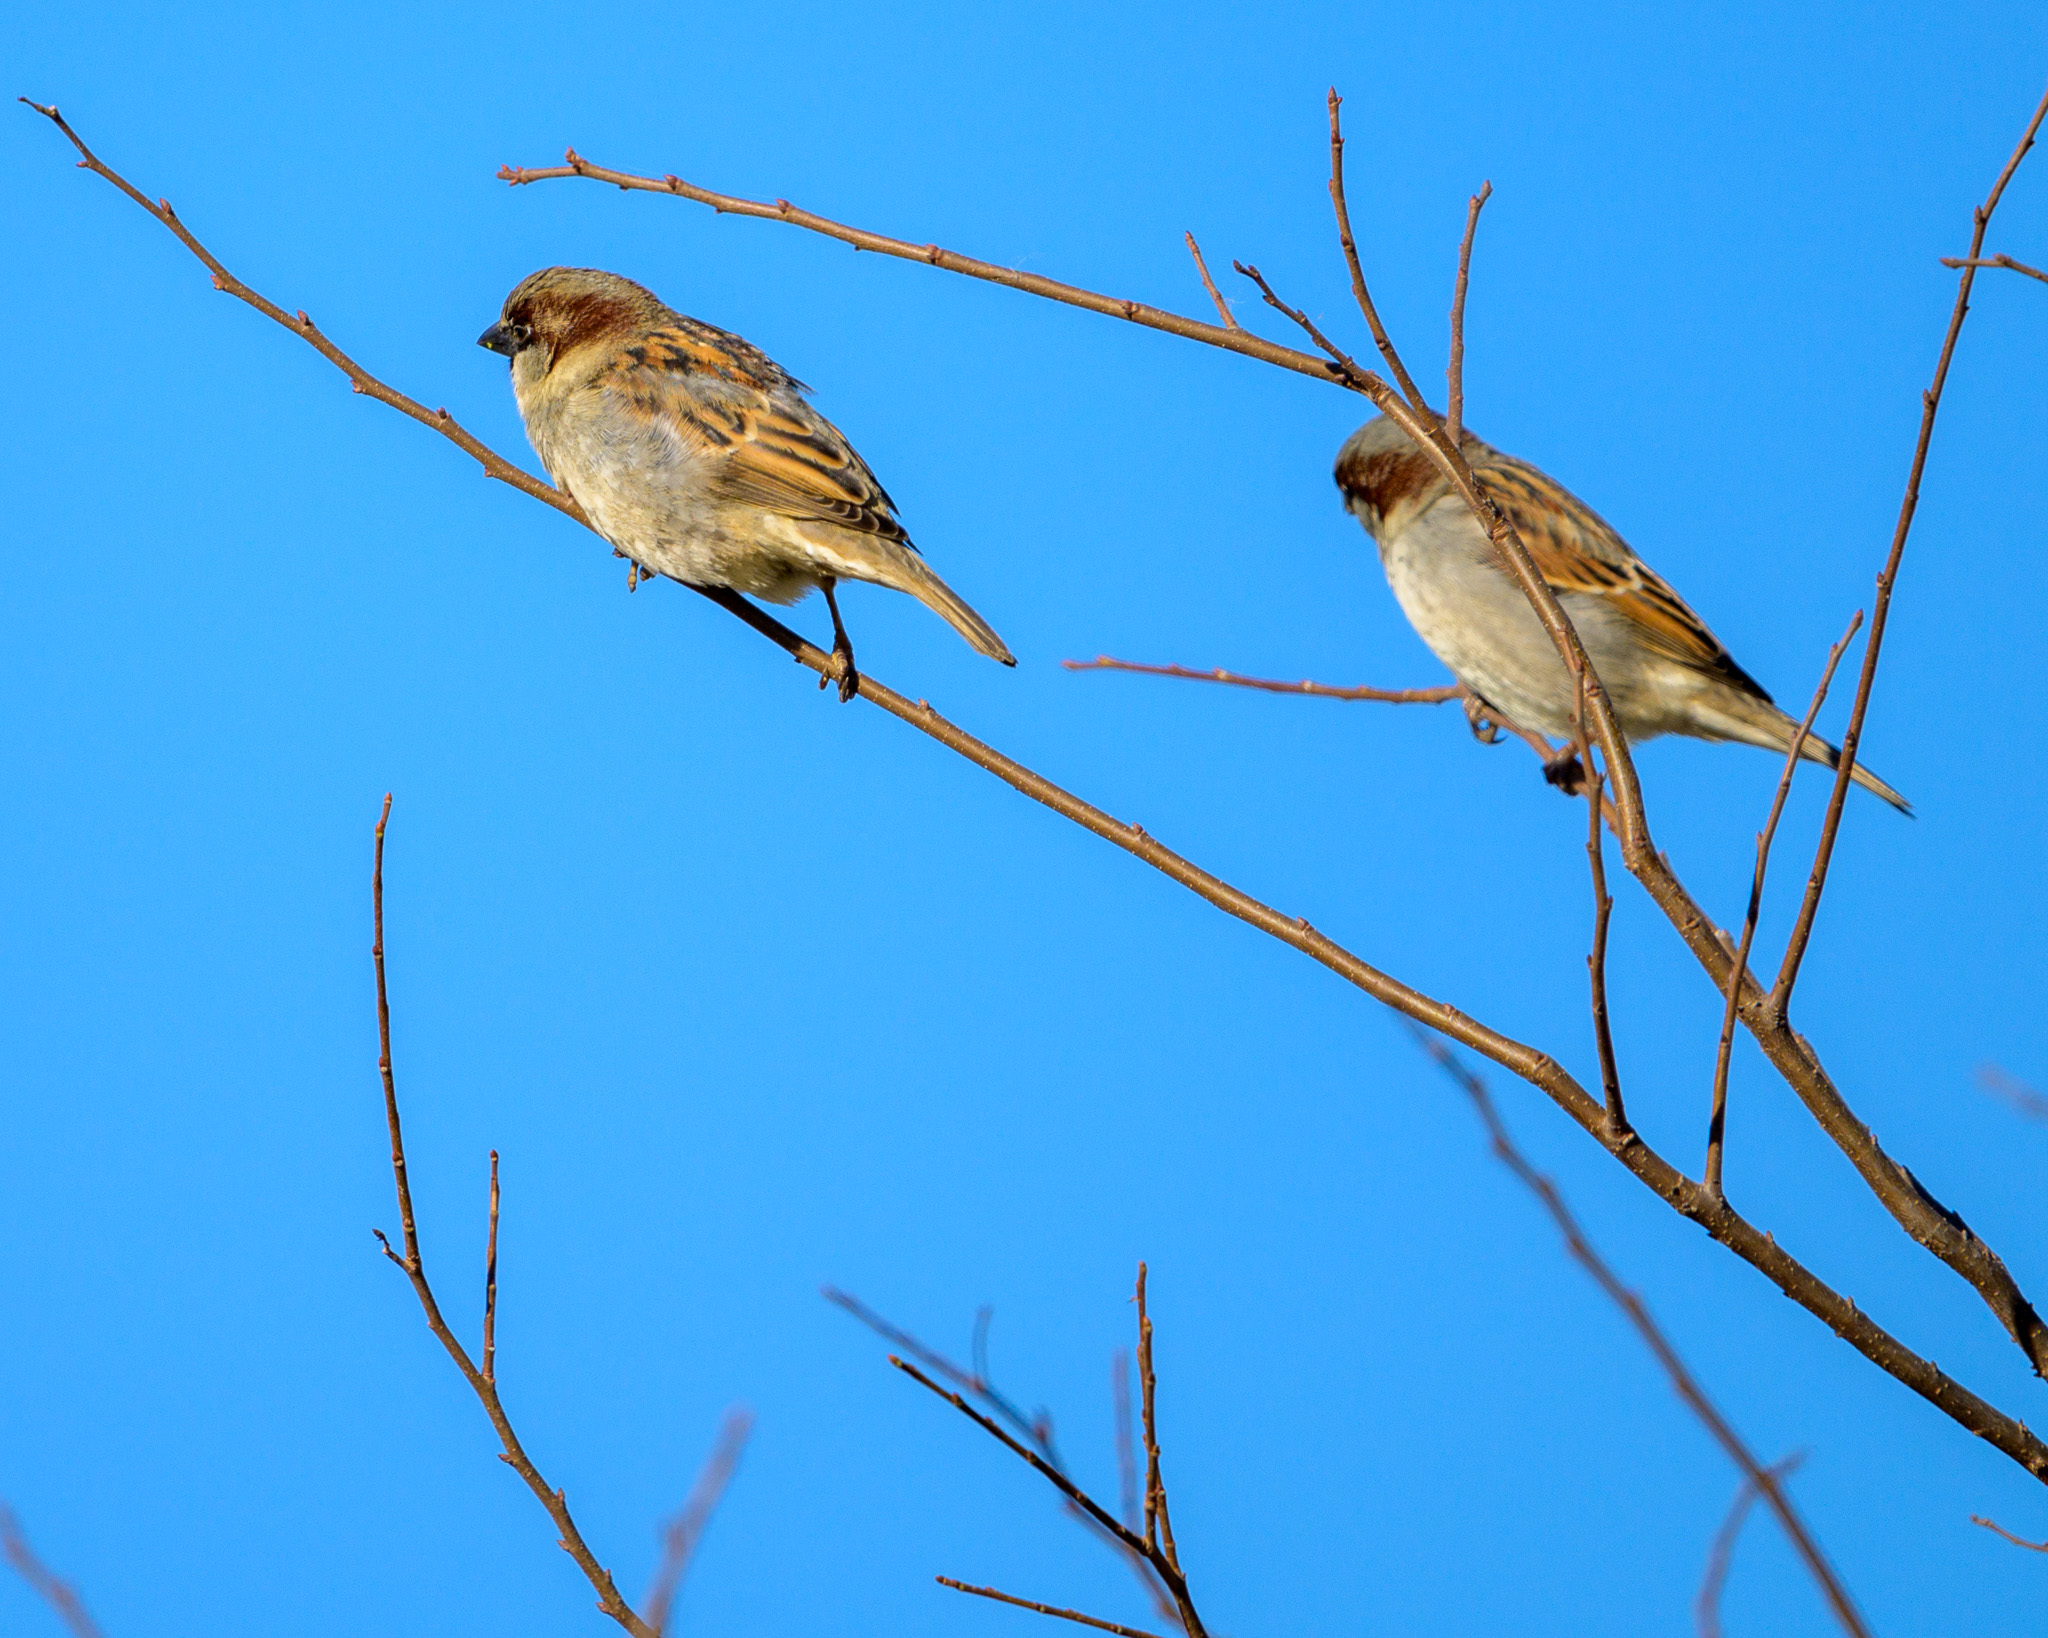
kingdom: Animalia
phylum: Chordata
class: Aves
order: Passeriformes
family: Passeridae
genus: Passer
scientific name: Passer domesticus
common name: House sparrow
